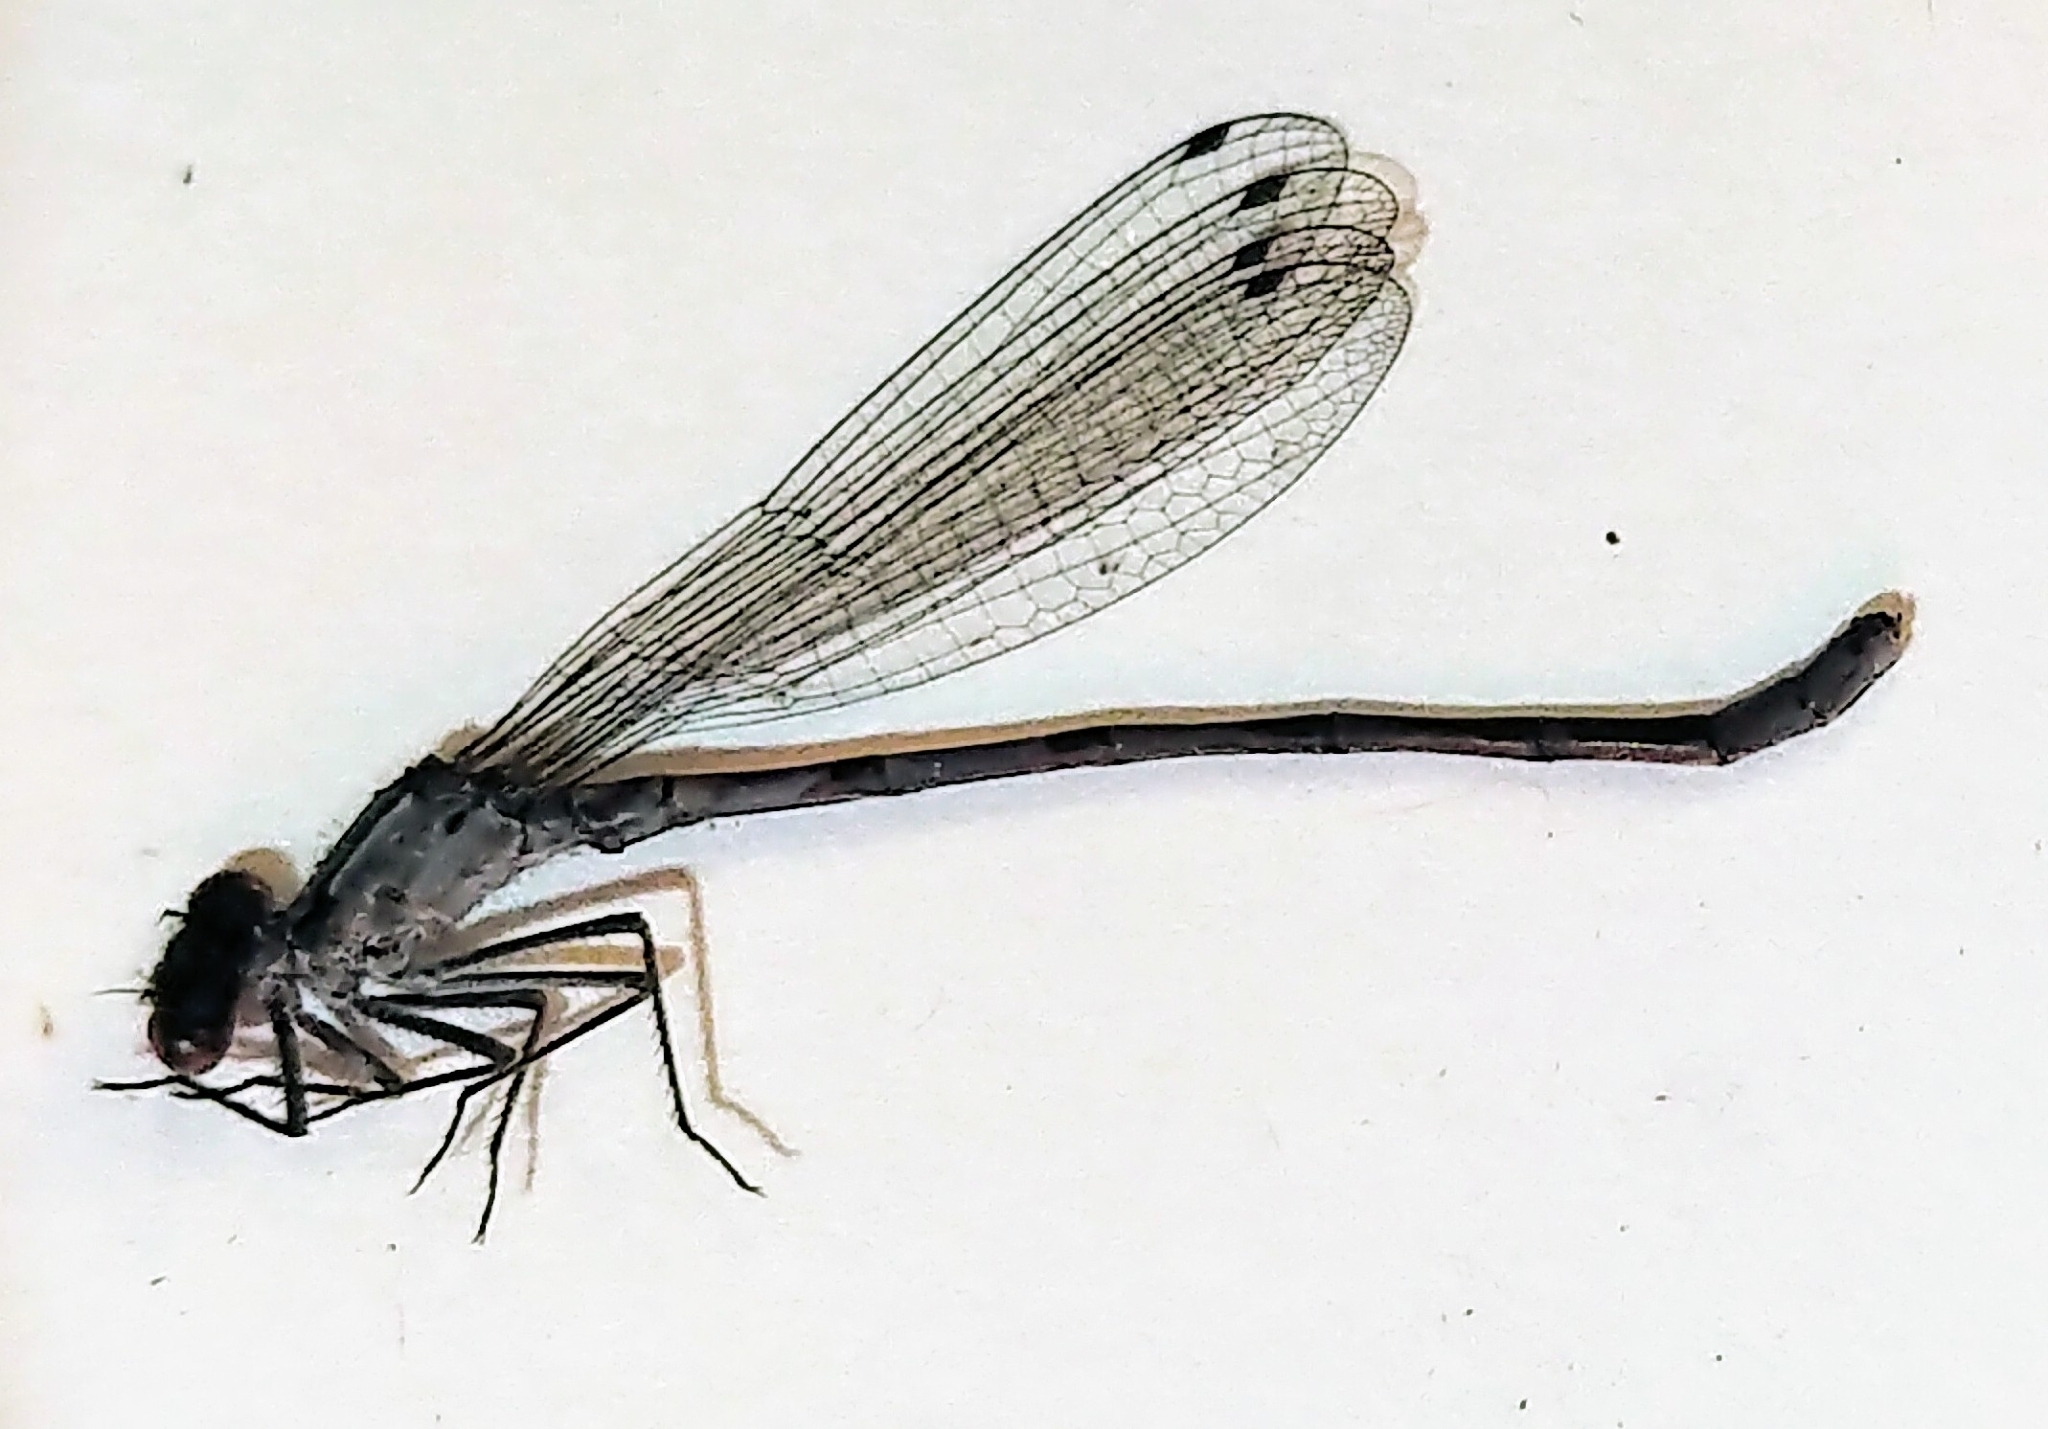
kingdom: Animalia
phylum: Arthropoda
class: Insecta
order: Odonata
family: Coenagrionidae
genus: Enallagma
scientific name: Enallagma annexum
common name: Northern bluet
